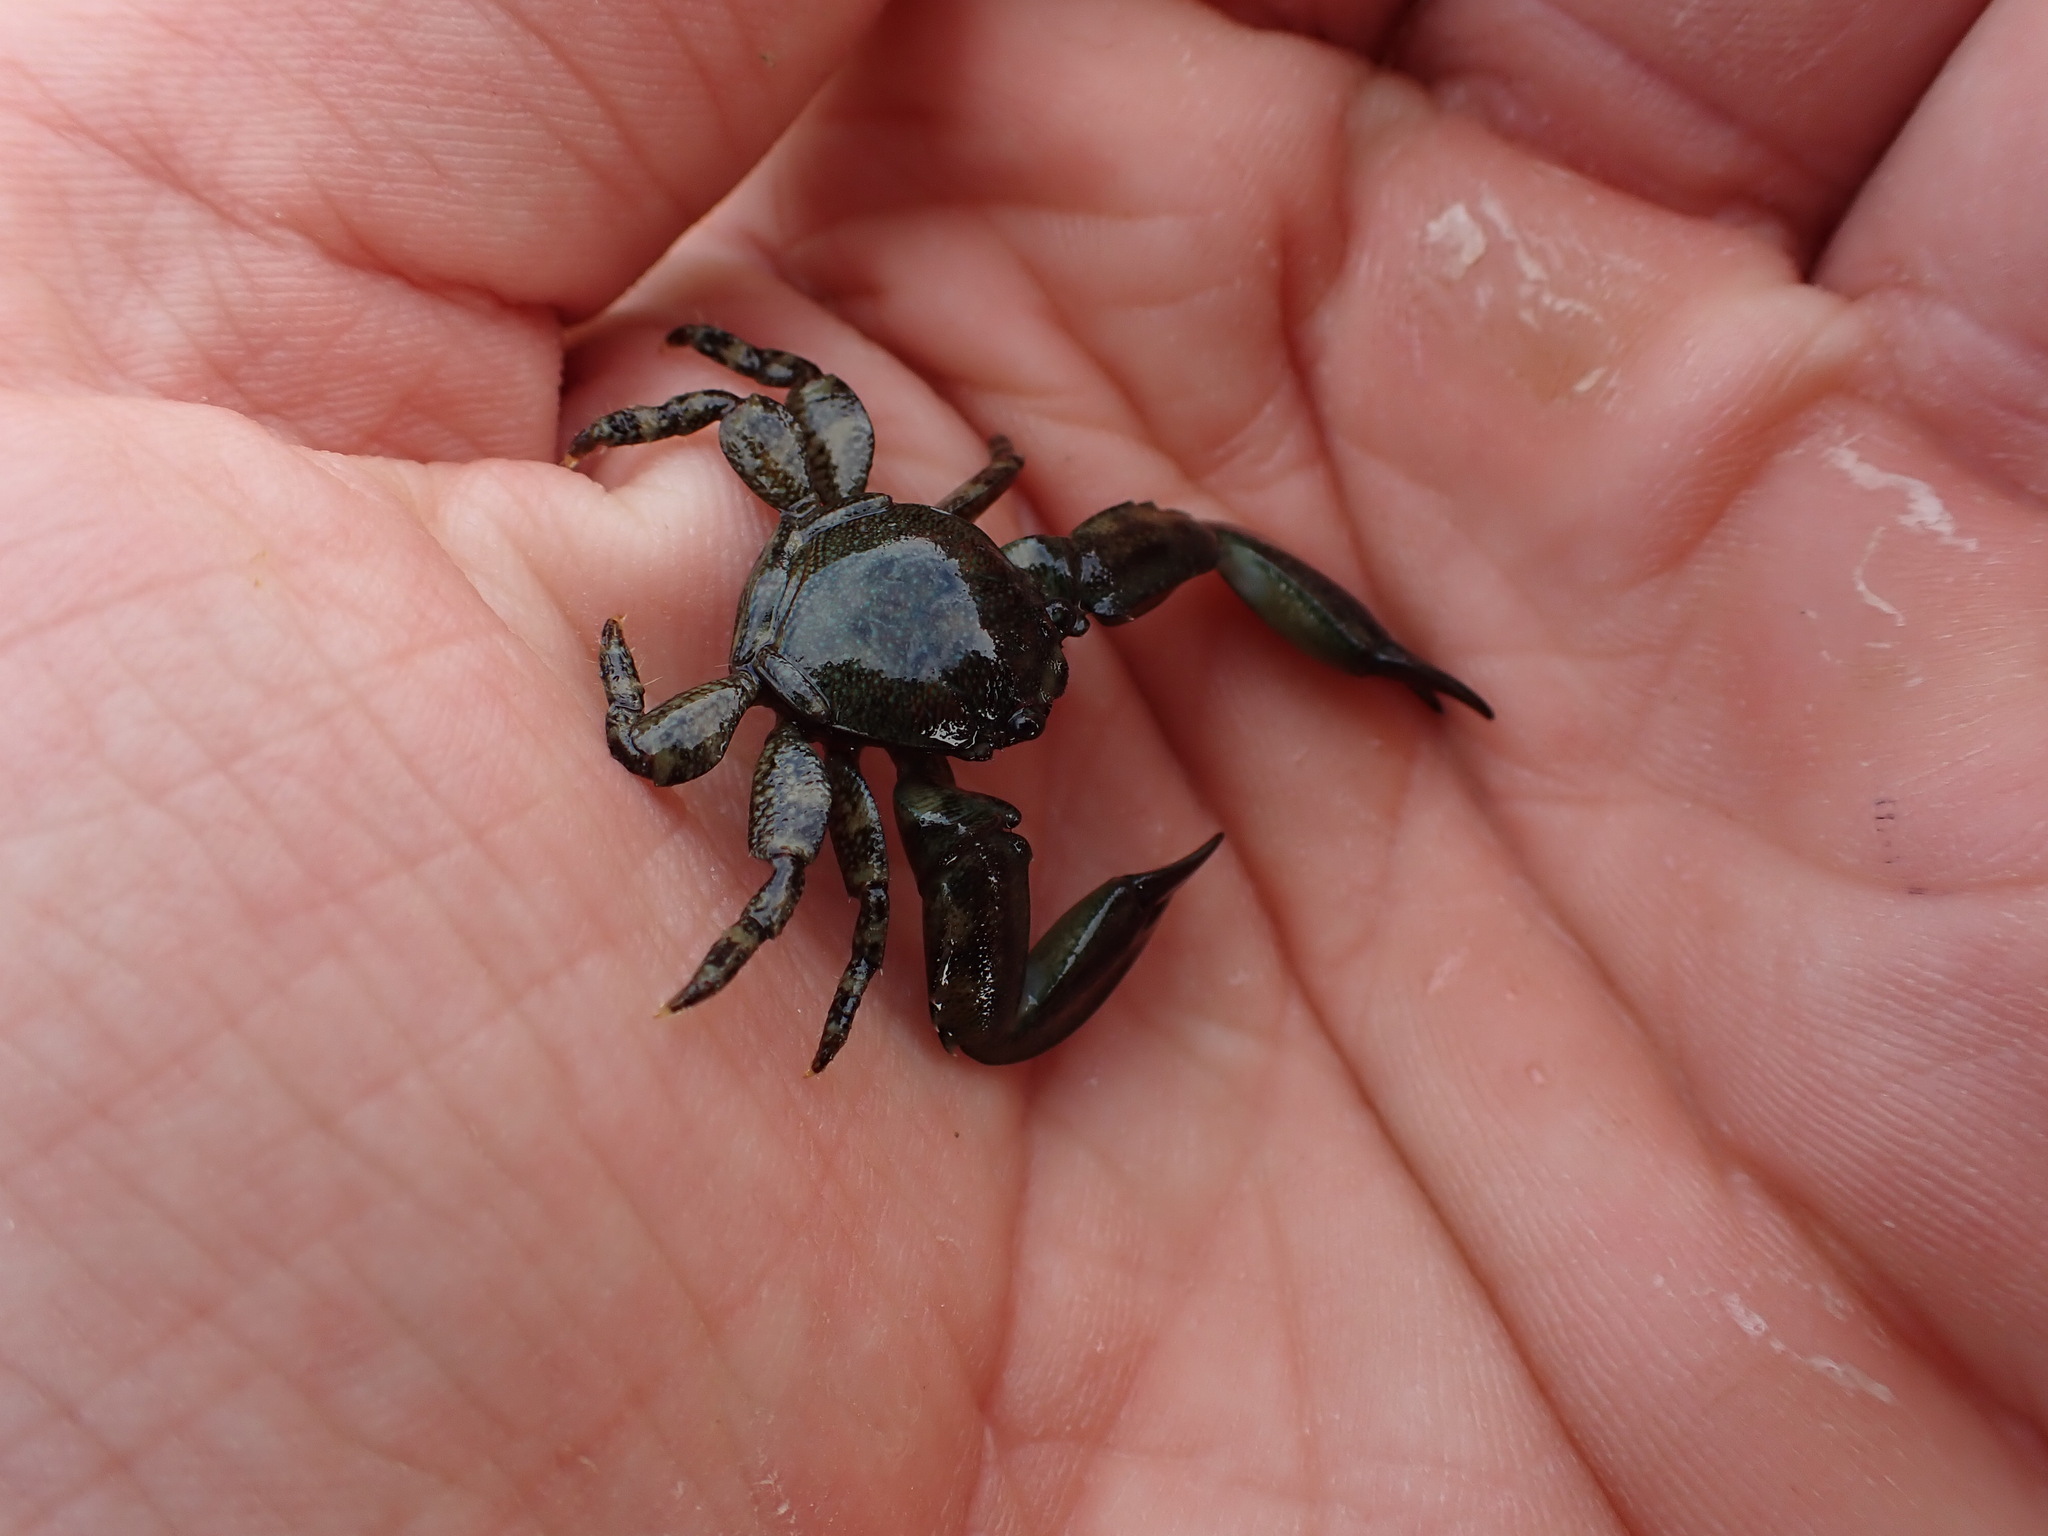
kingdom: Animalia
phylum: Arthropoda
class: Malacostraca
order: Decapoda
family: Porcellanidae
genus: Petrolisthes
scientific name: Petrolisthes elongatus
